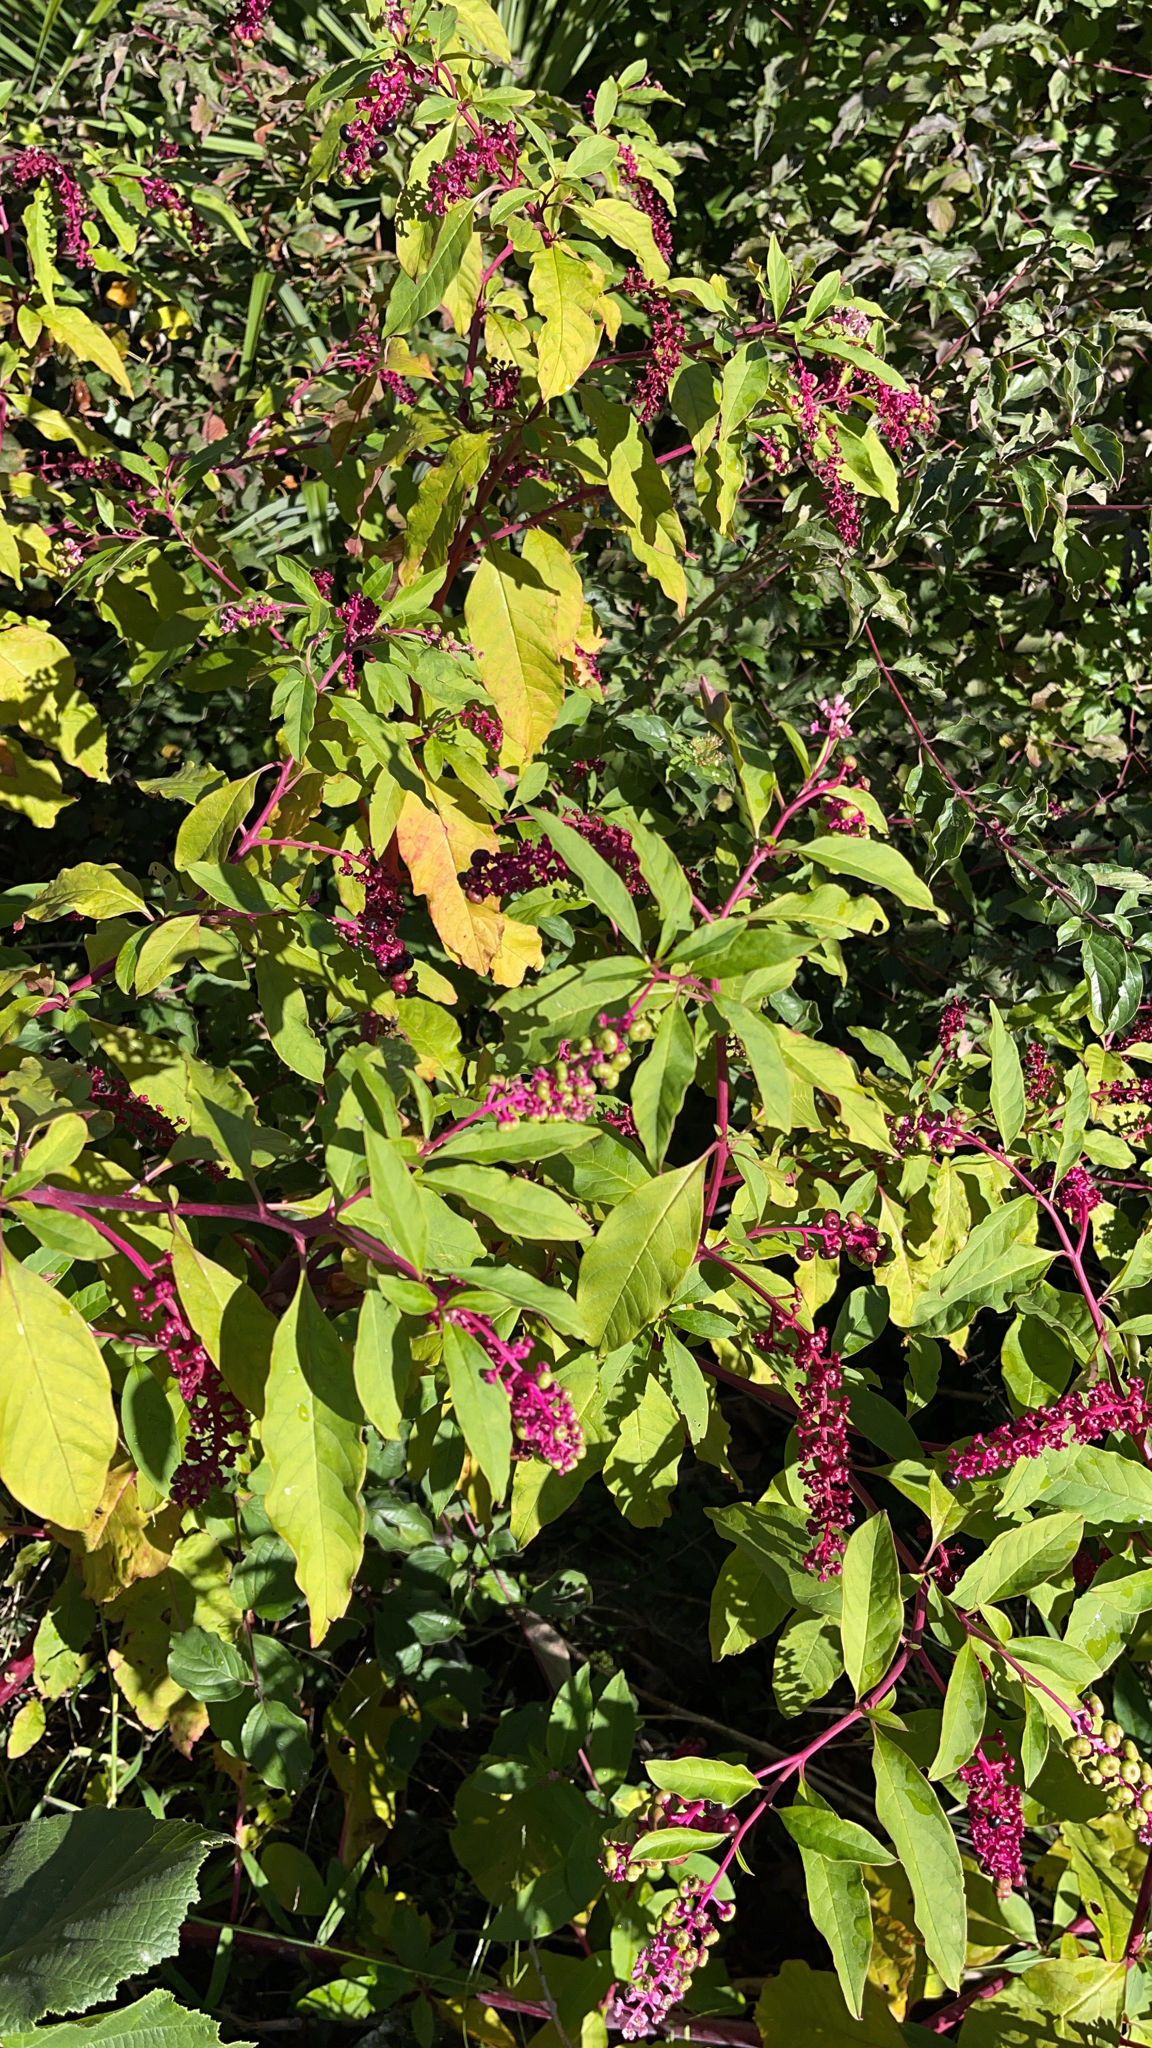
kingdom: Plantae
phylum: Tracheophyta
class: Magnoliopsida
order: Caryophyllales
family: Phytolaccaceae
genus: Phytolacca
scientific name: Phytolacca americana
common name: American pokeweed
